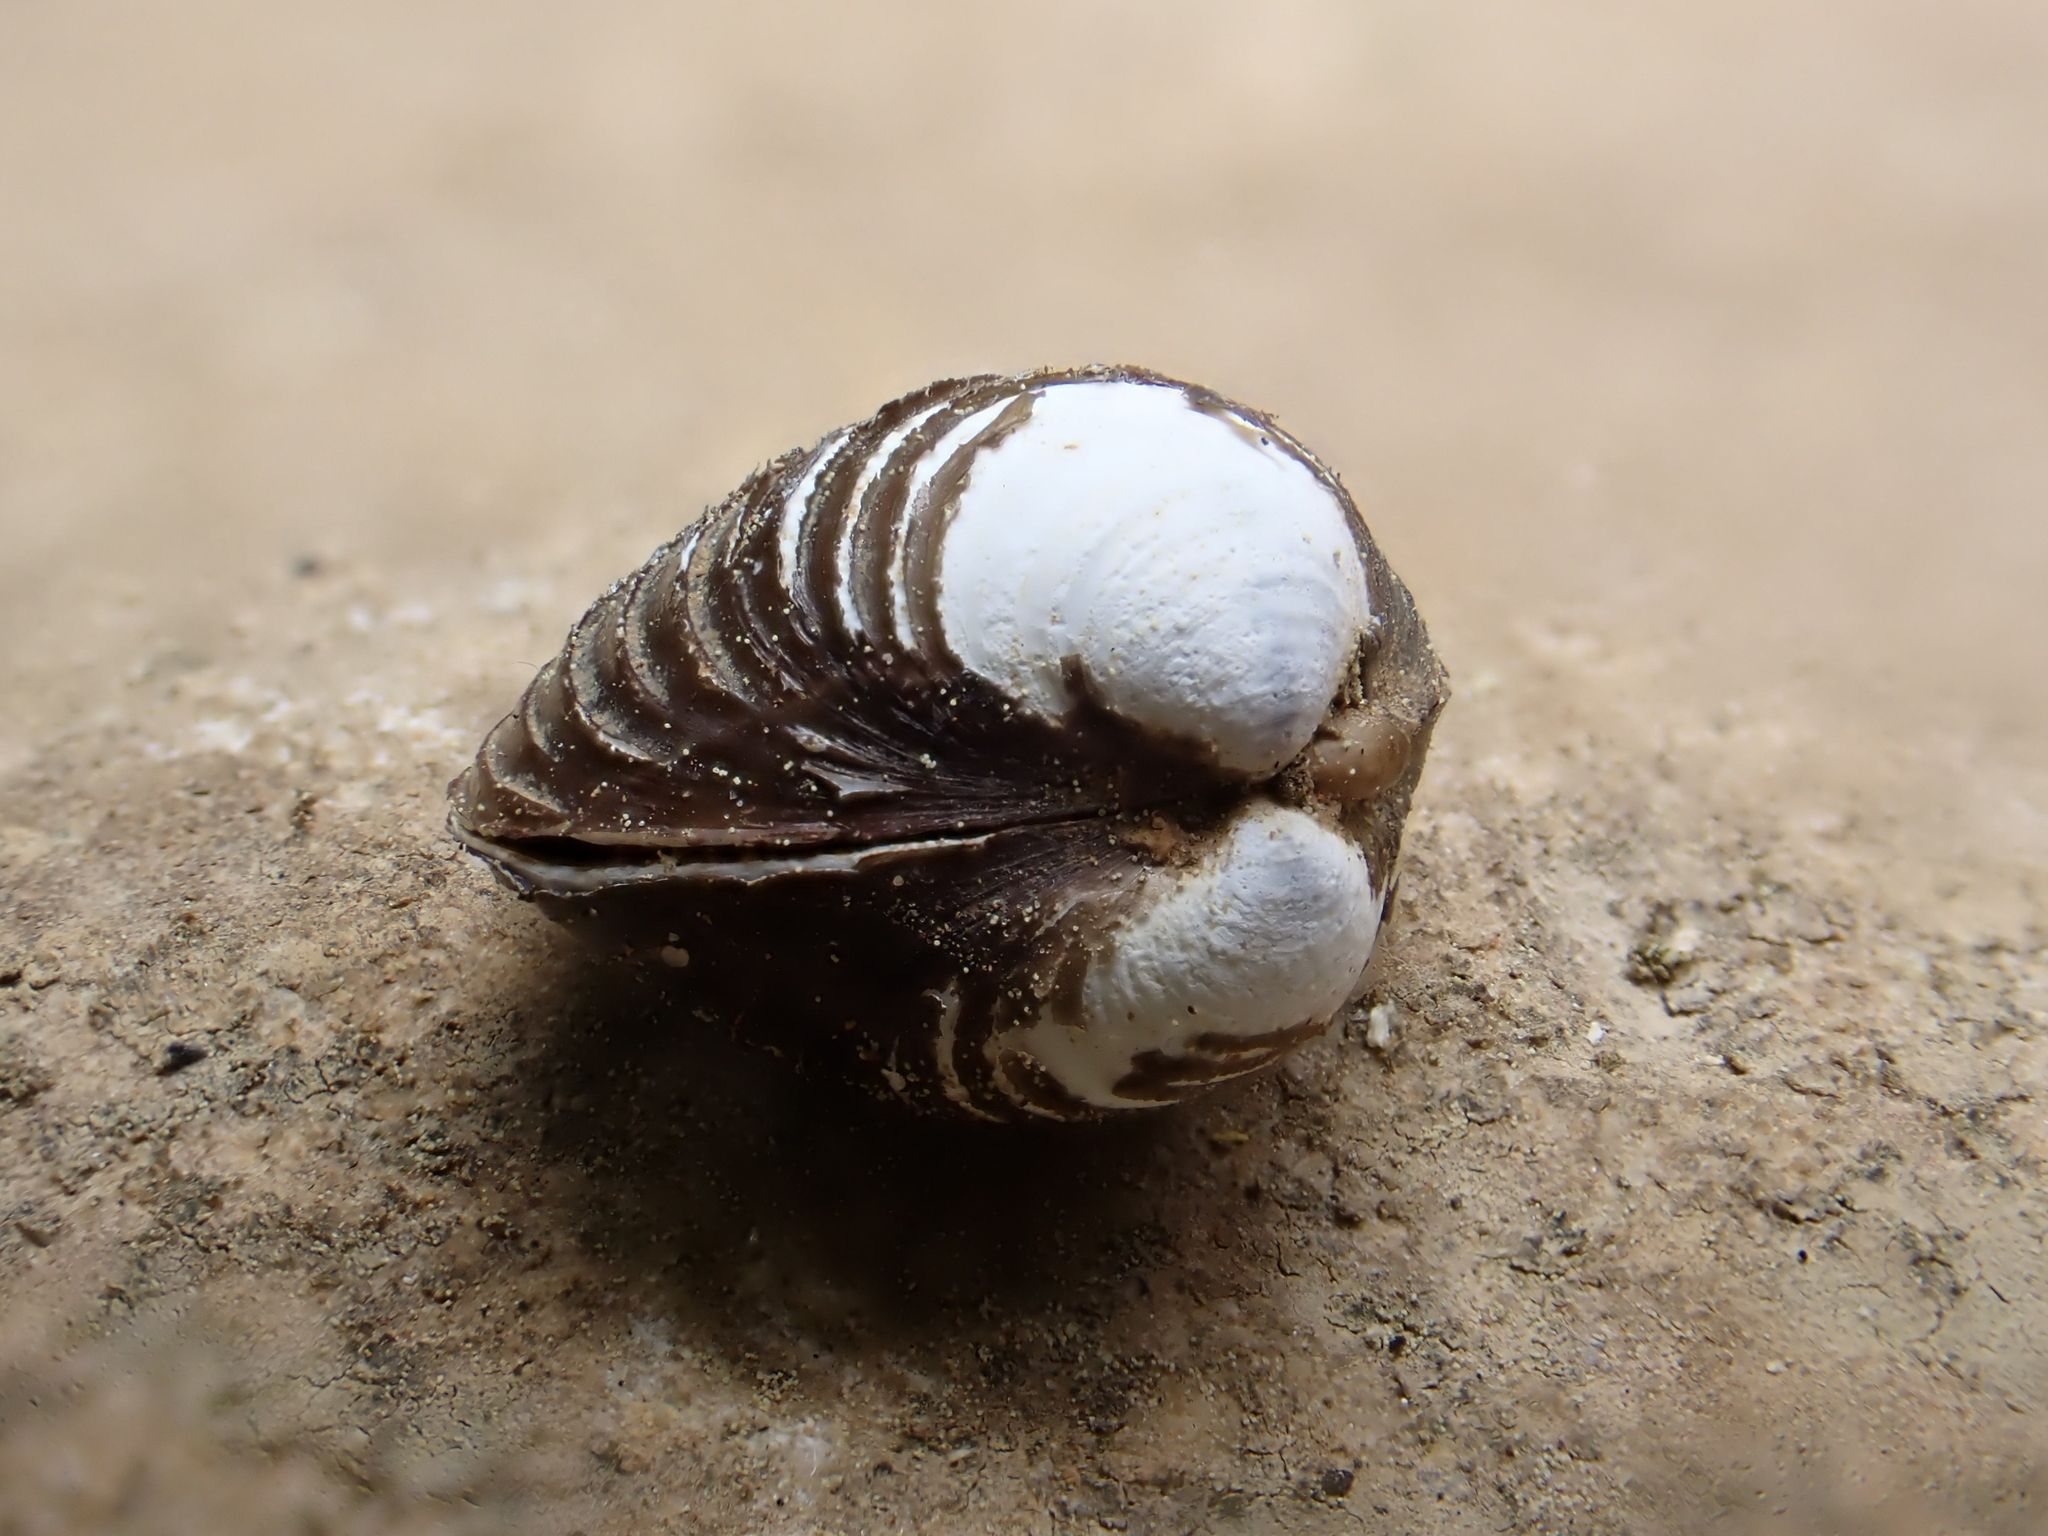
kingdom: Animalia
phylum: Mollusca
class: Bivalvia
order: Venerida
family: Cyrenidae
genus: Corbicula
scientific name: Corbicula fluminea
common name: Asian clam
